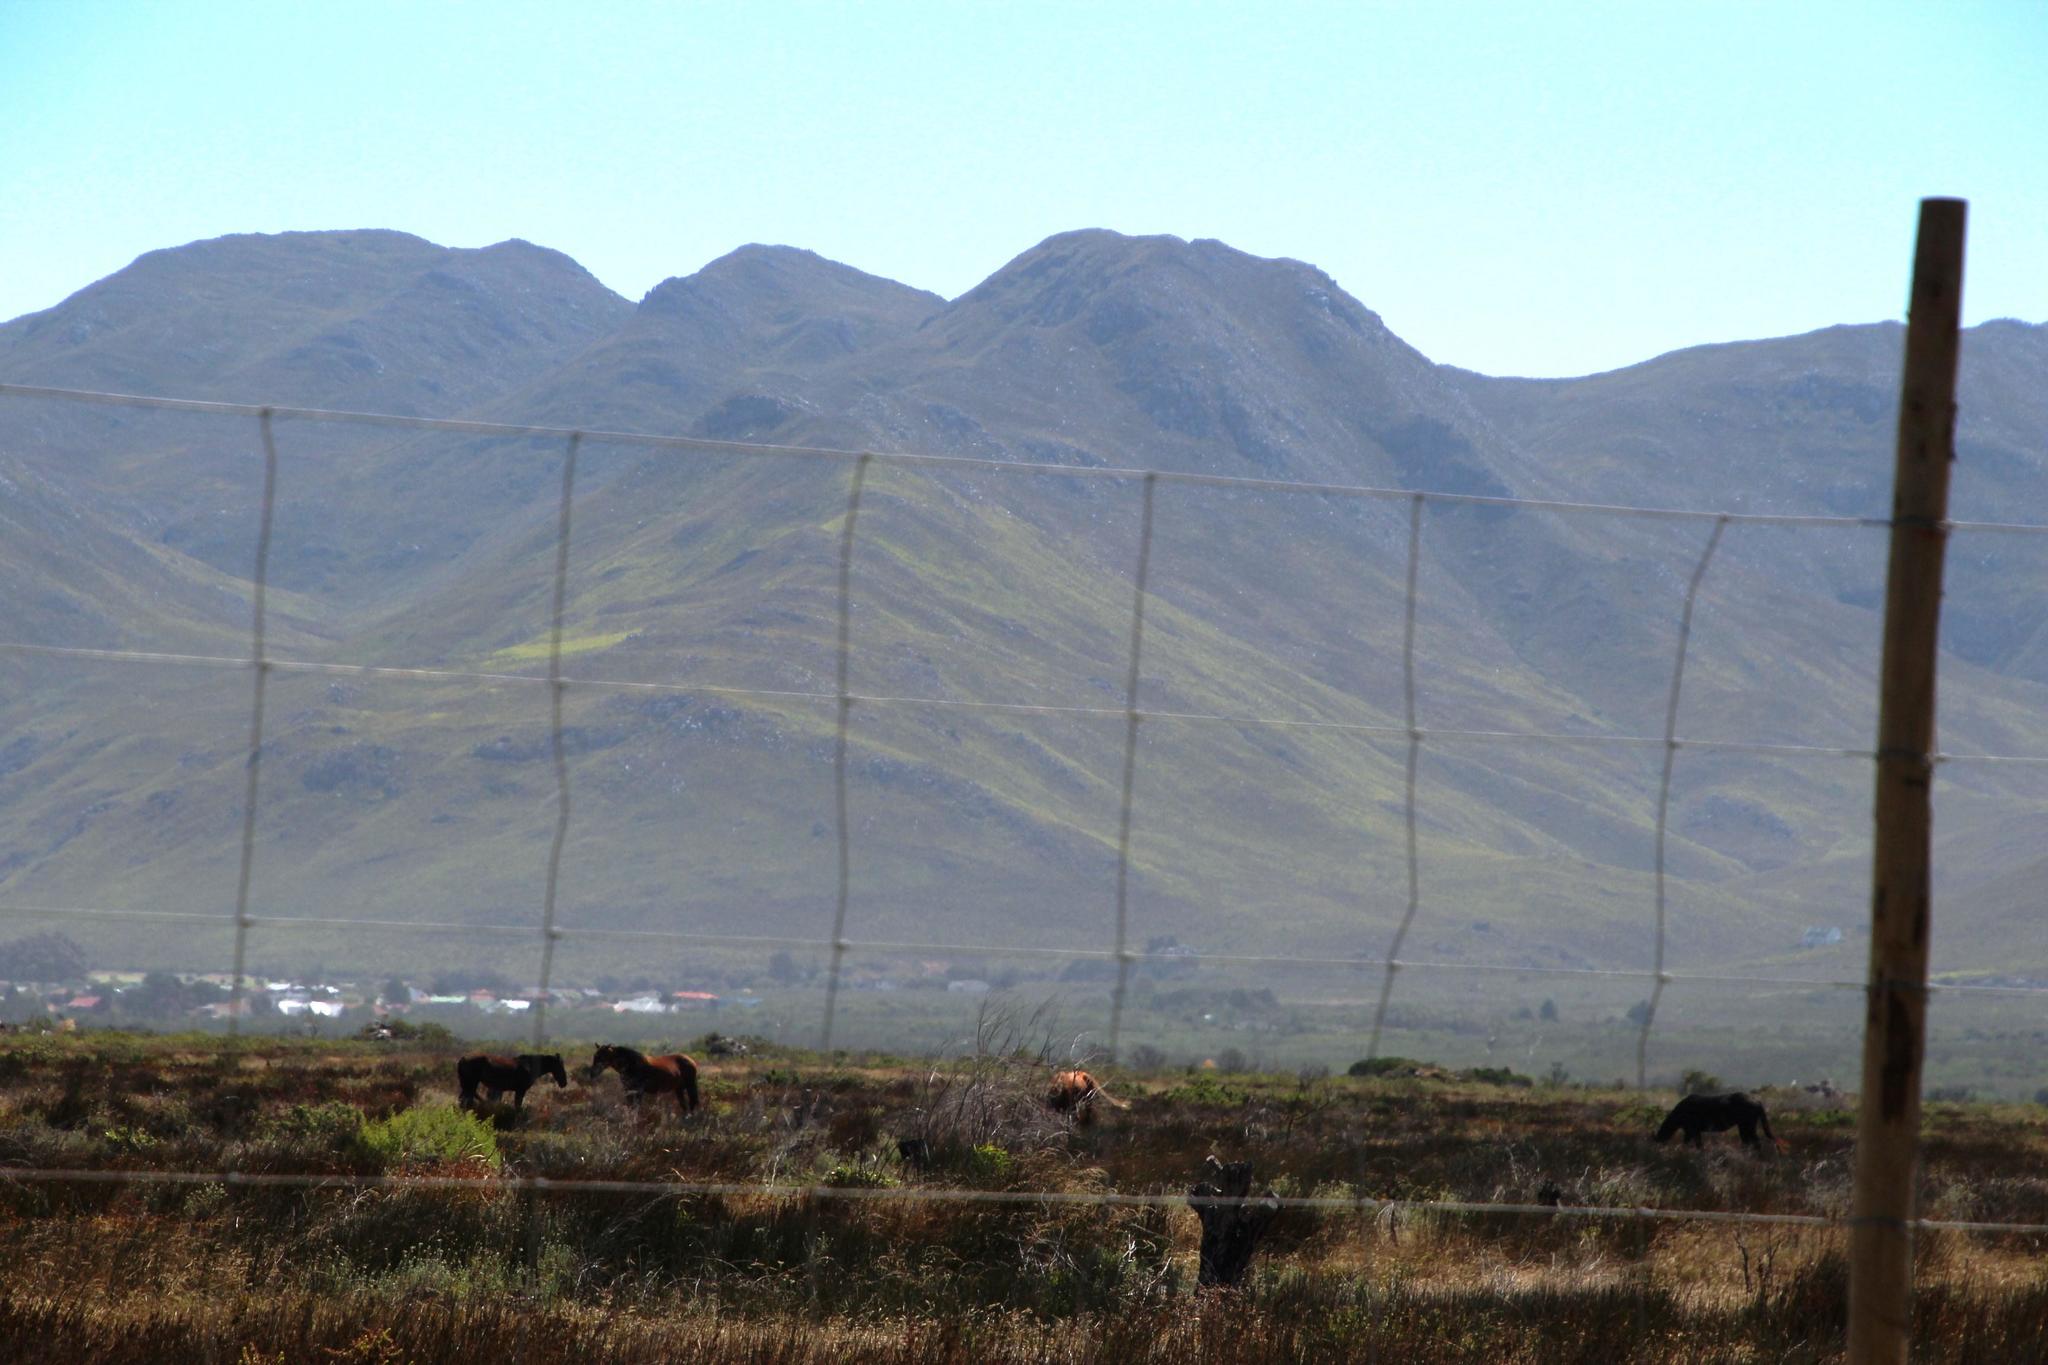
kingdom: Animalia
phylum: Chordata
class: Mammalia
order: Perissodactyla
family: Equidae
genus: Equus
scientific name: Equus caballus
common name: Horse
